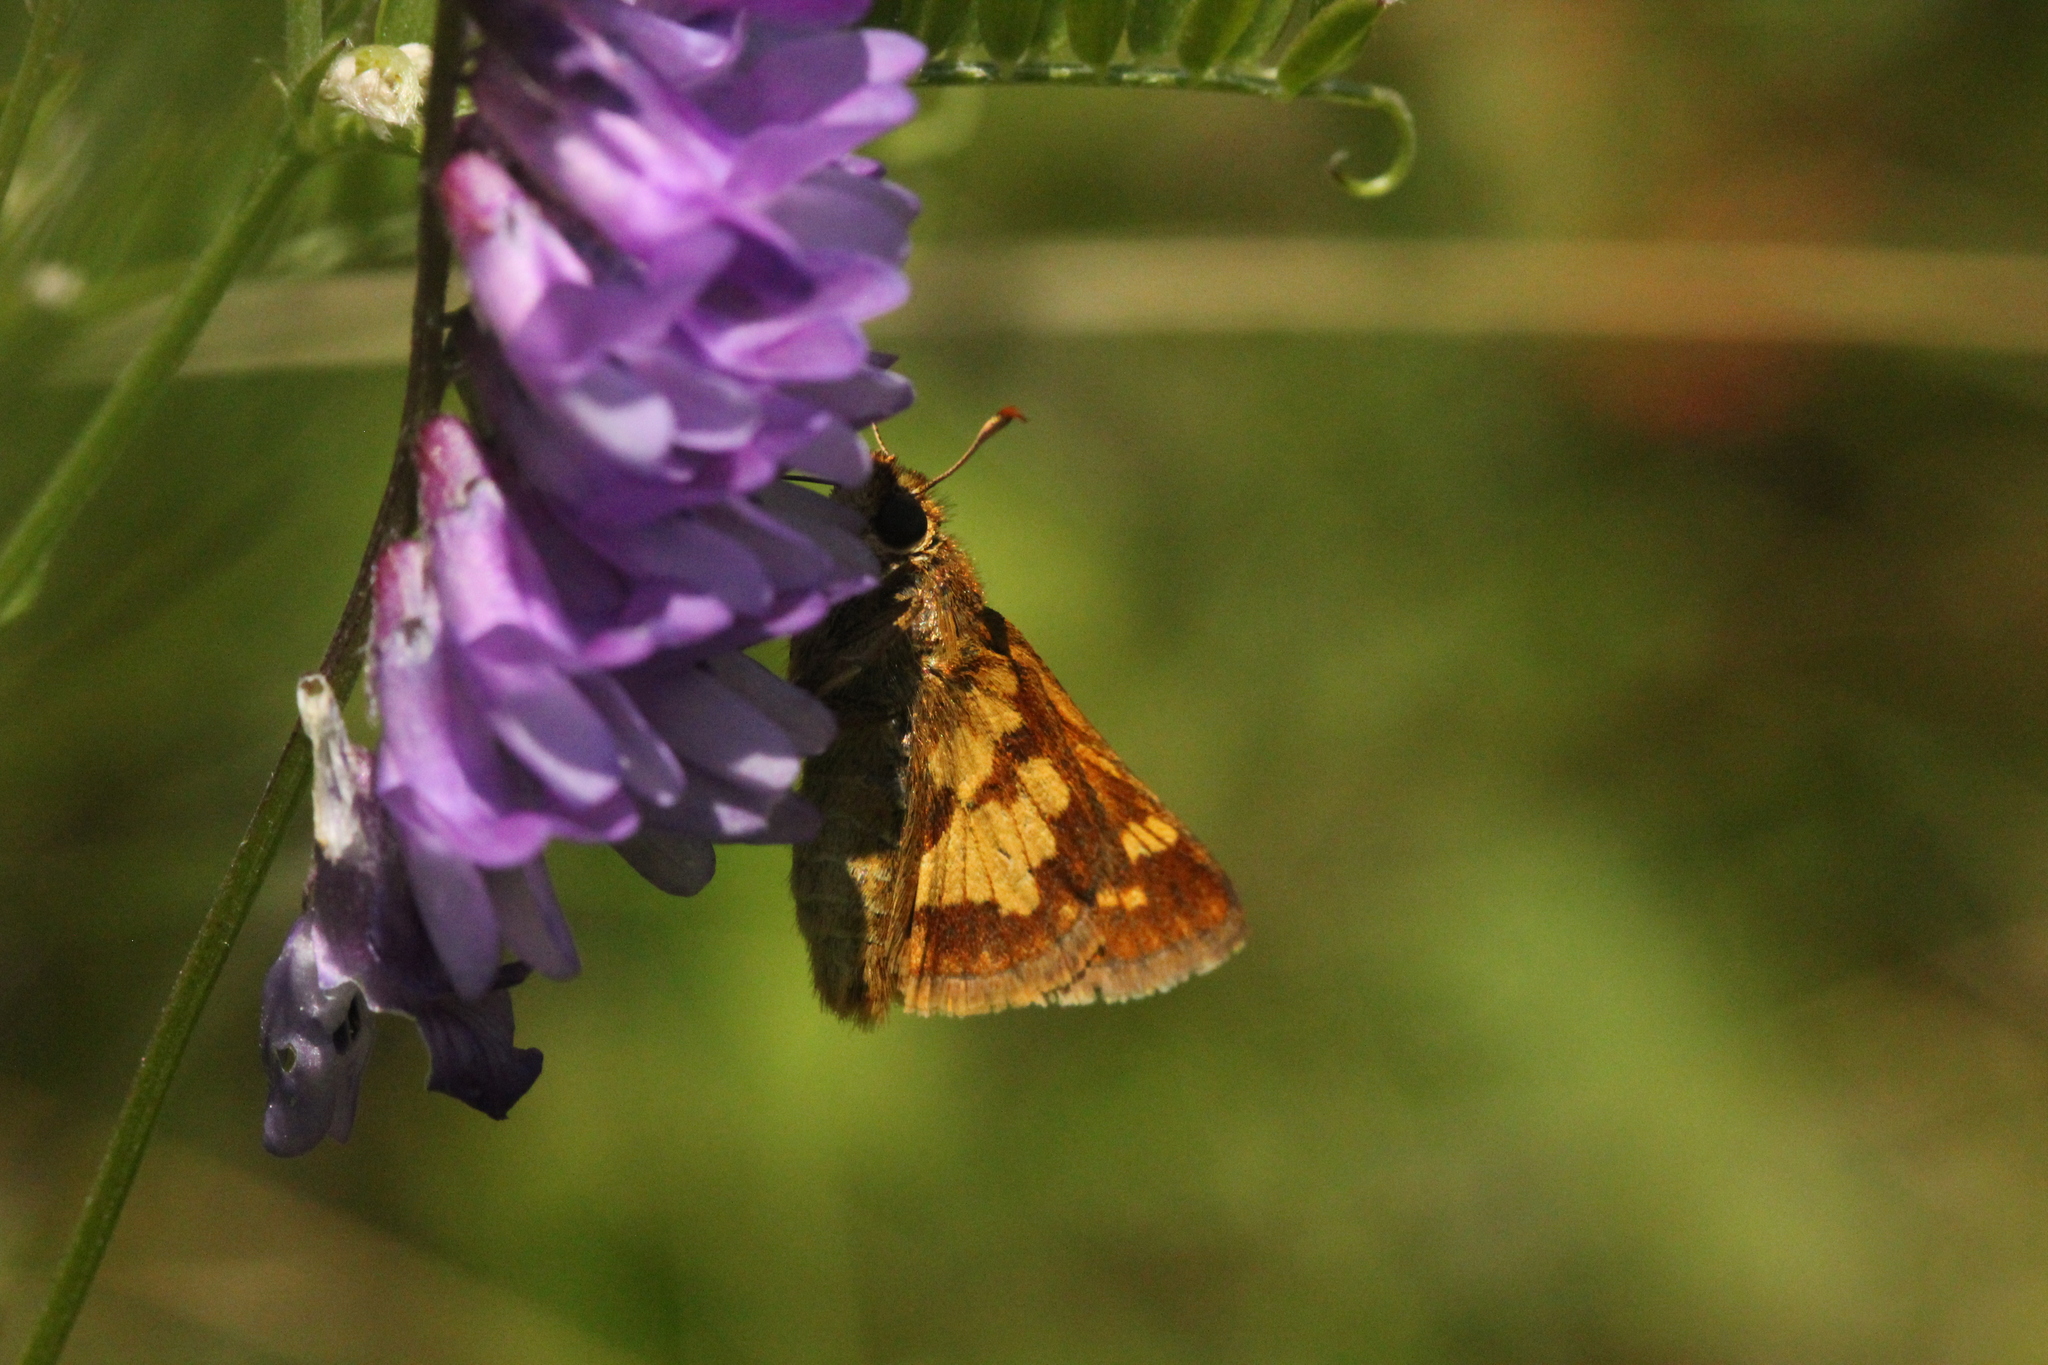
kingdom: Animalia
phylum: Arthropoda
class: Insecta
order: Lepidoptera
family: Hesperiidae
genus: Polites
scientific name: Polites coras
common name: Peck's skipper
